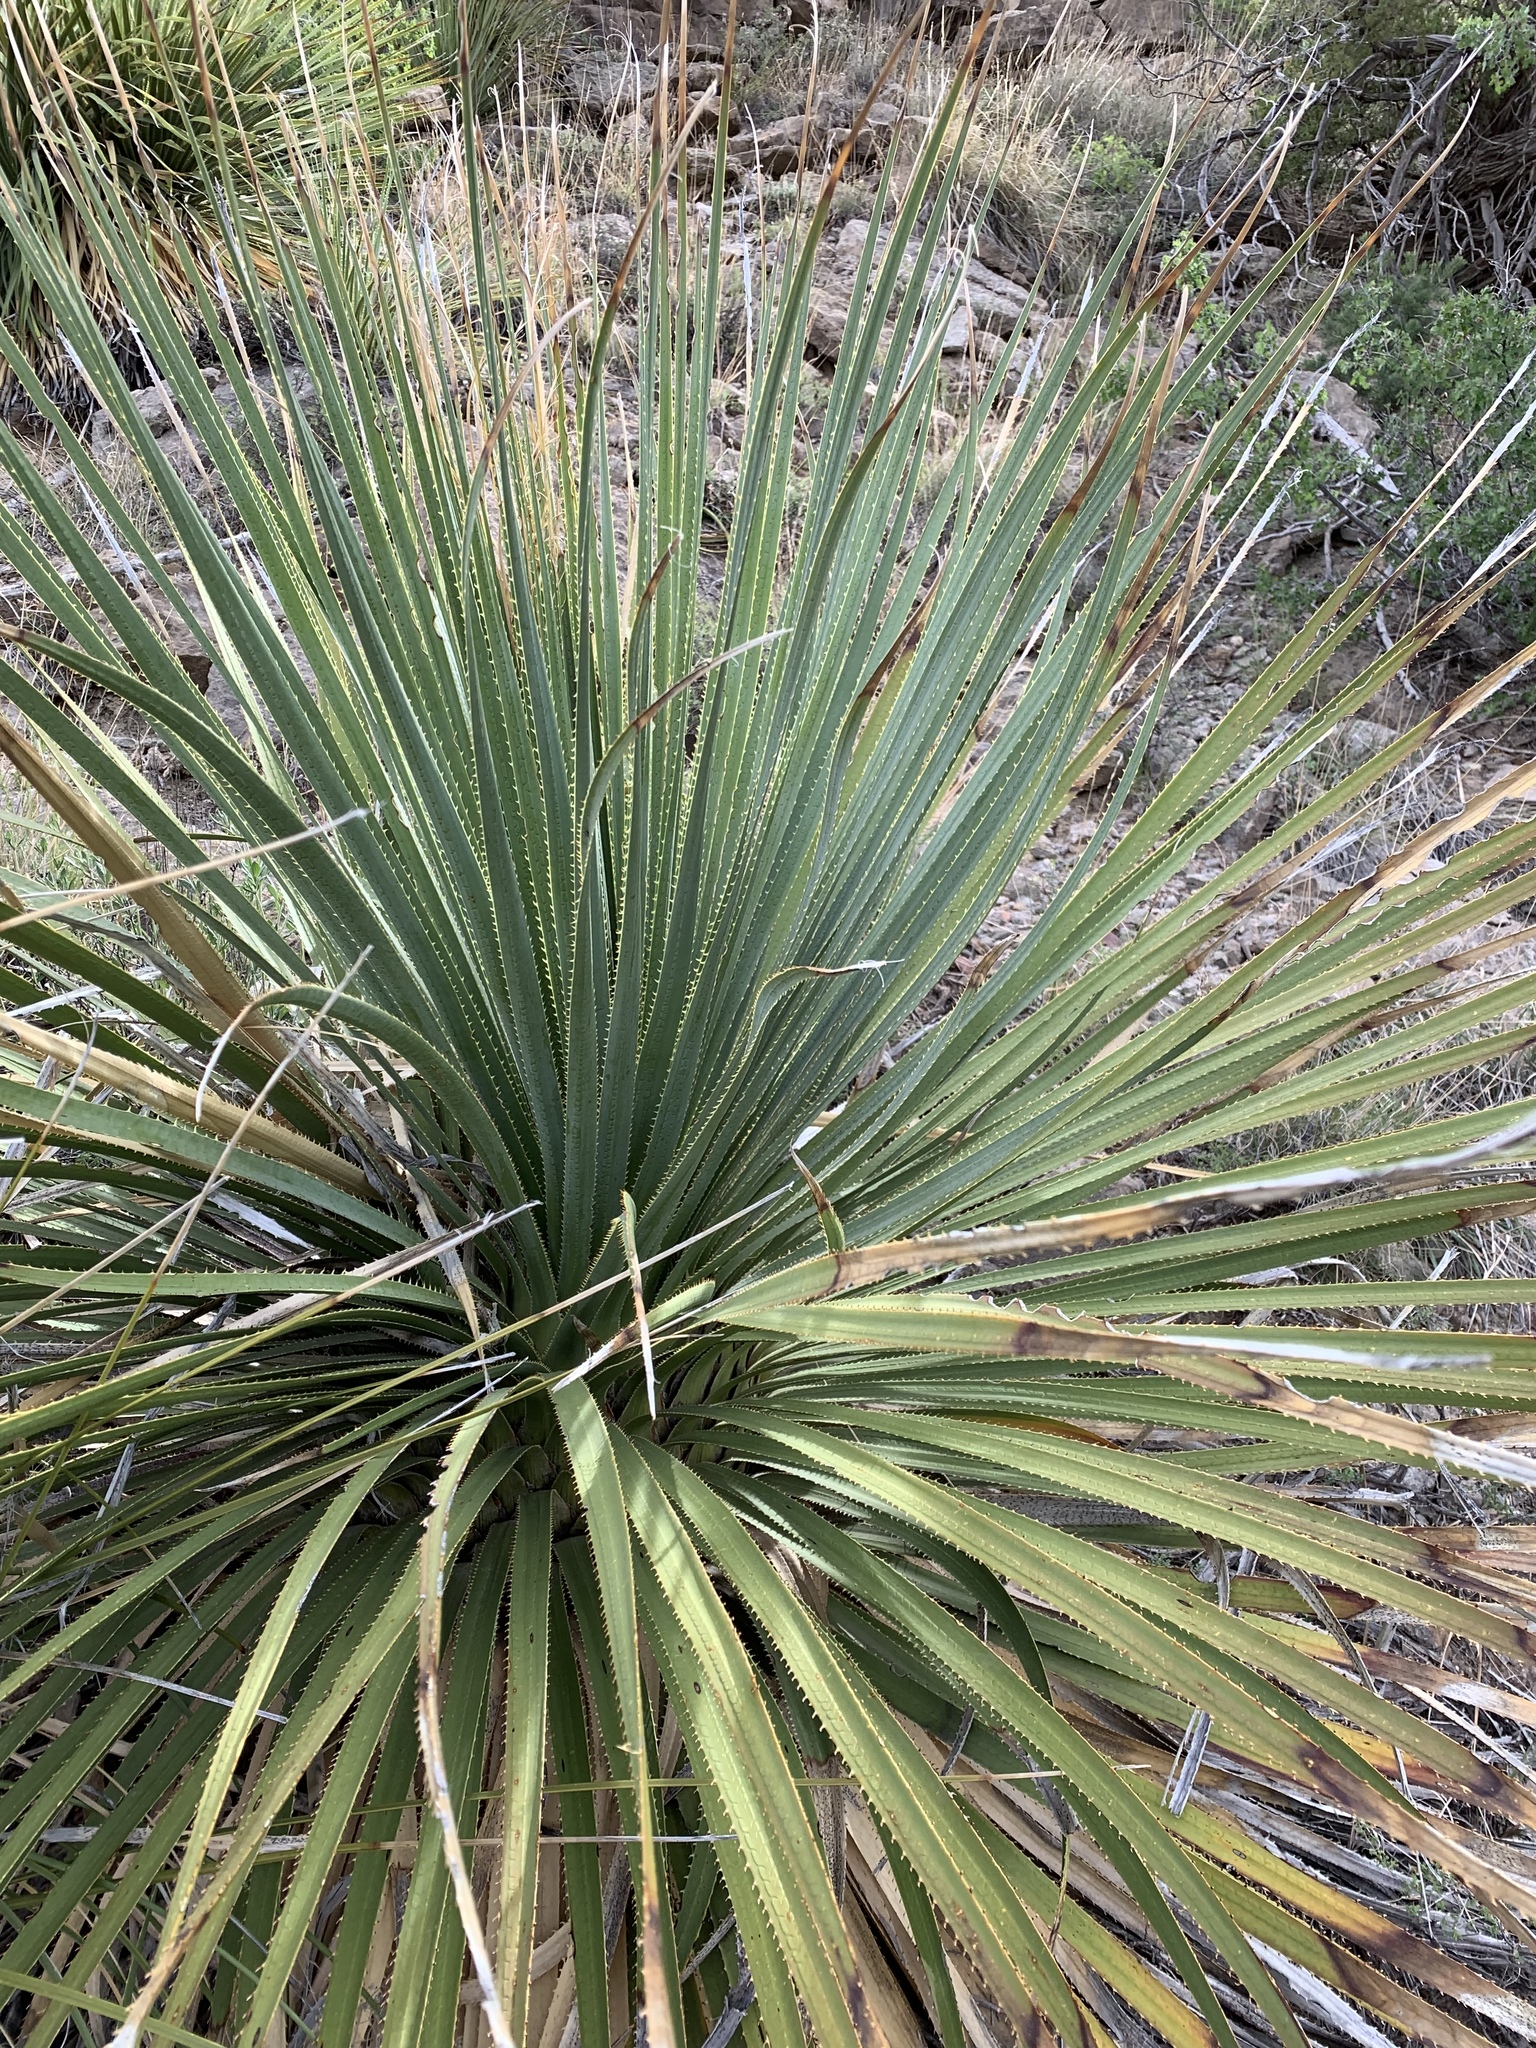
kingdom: Plantae
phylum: Tracheophyta
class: Liliopsida
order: Asparagales
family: Asparagaceae
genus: Dasylirion
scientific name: Dasylirion wheeleri
